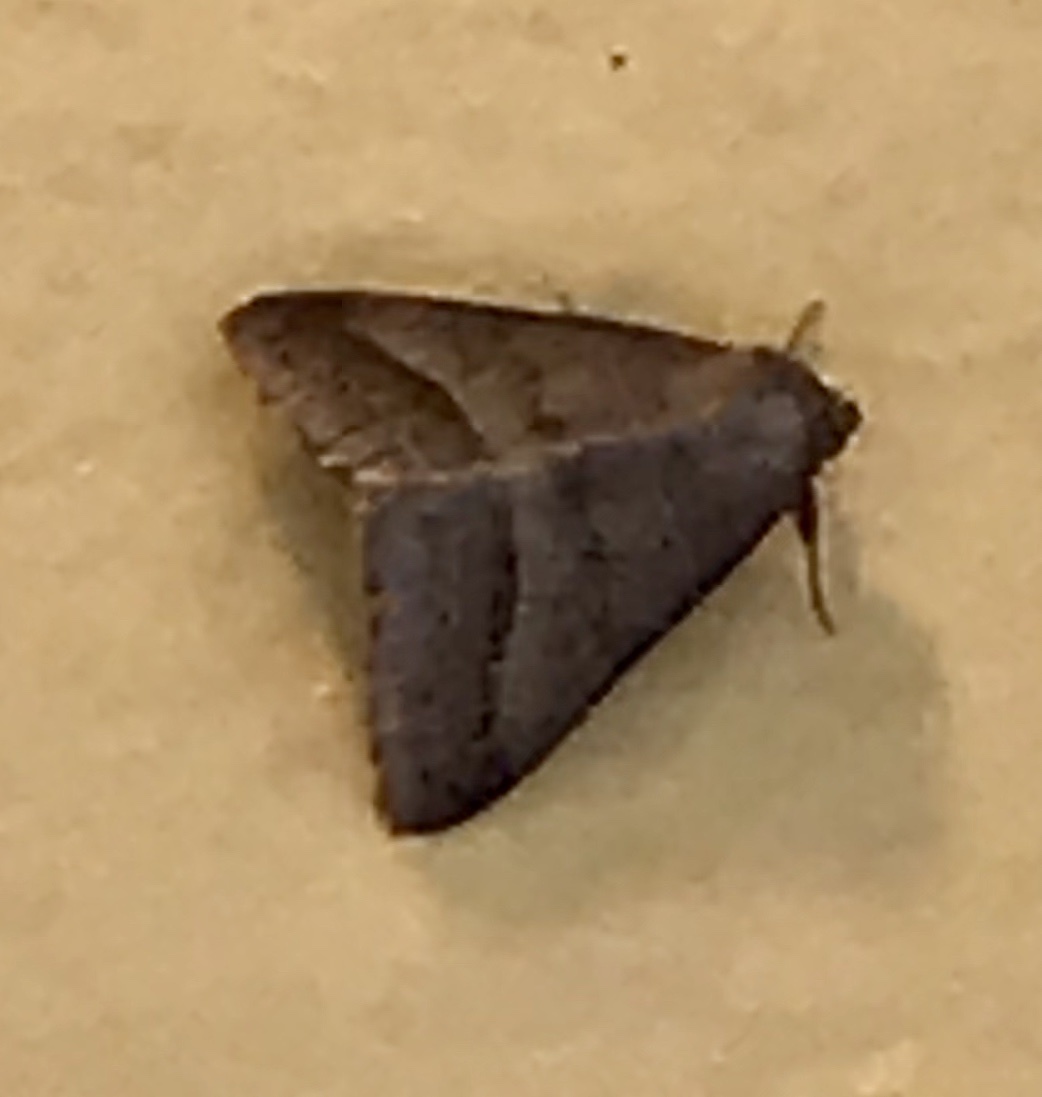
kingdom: Animalia
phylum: Arthropoda
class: Insecta
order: Lepidoptera
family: Erebidae
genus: Mocis
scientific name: Mocis texana
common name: Texas mocis moth
